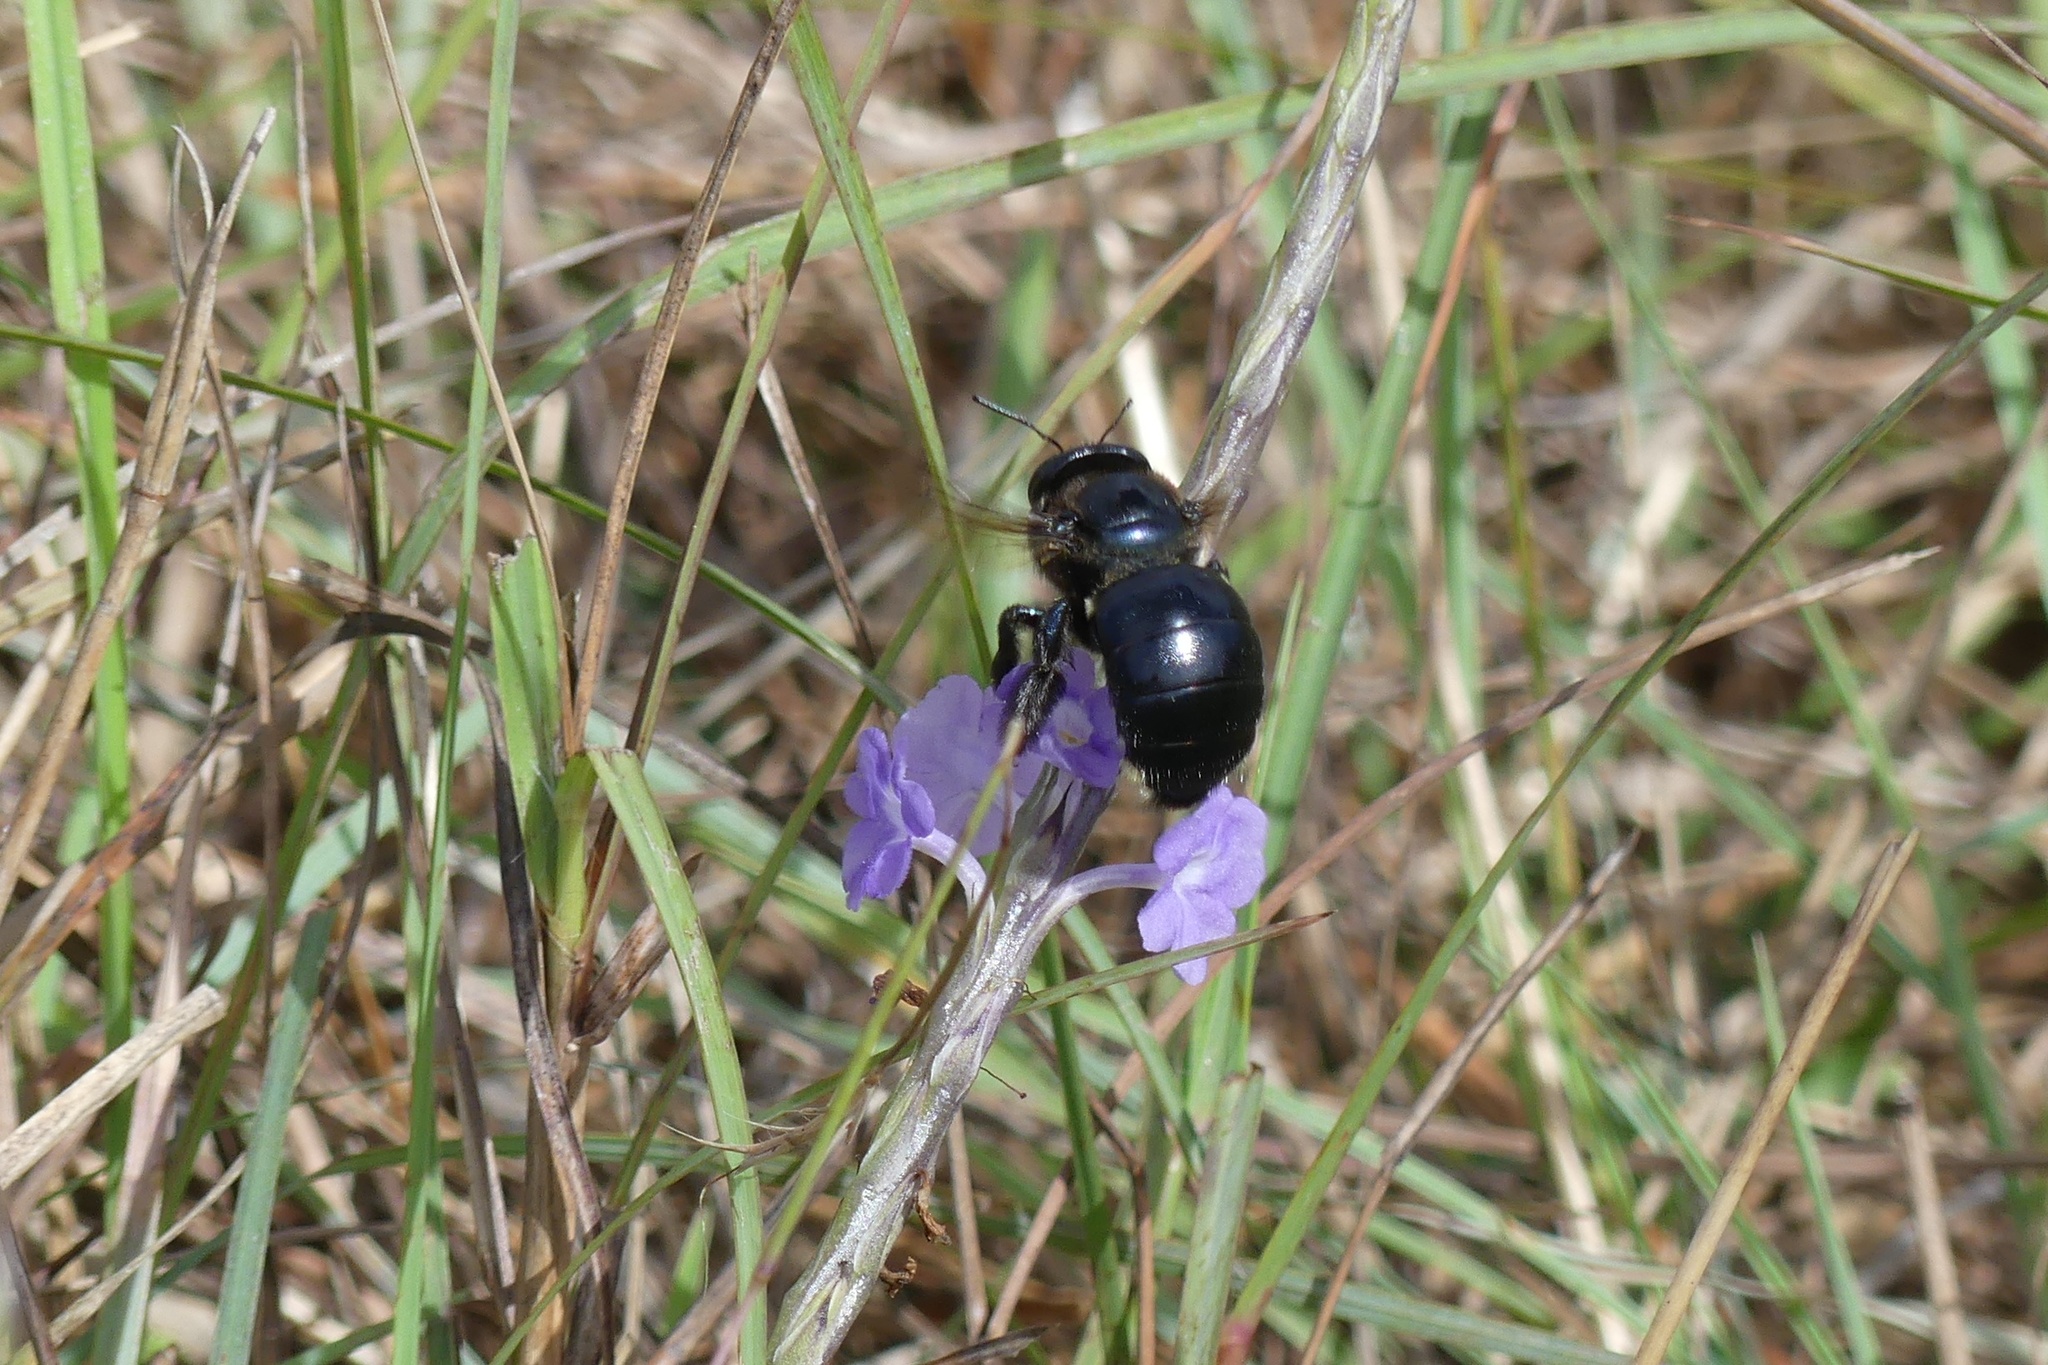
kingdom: Animalia
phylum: Arthropoda
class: Insecta
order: Hymenoptera
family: Apidae
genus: Xylocopa
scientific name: Xylocopa micans
